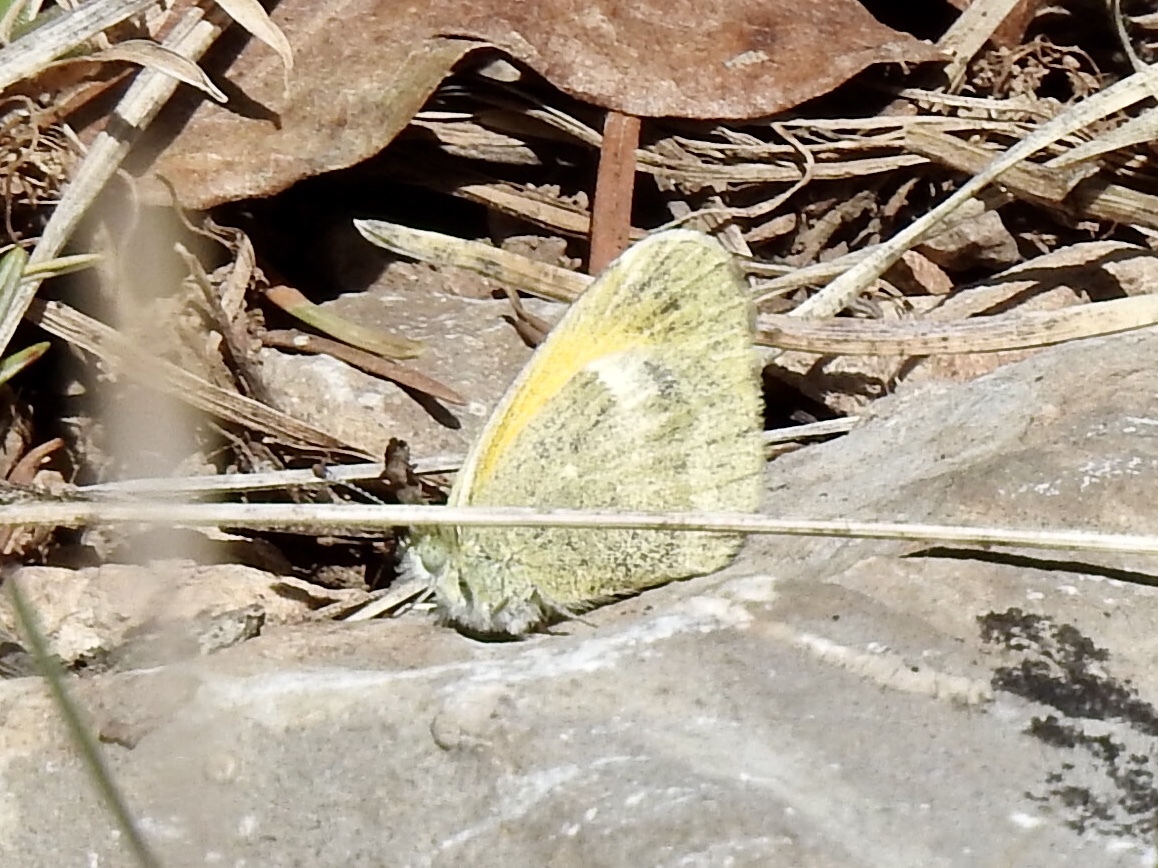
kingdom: Animalia
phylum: Arthropoda
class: Insecta
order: Lepidoptera
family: Pieridae
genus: Nathalis
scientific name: Nathalis iole
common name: Dainty sulphur
